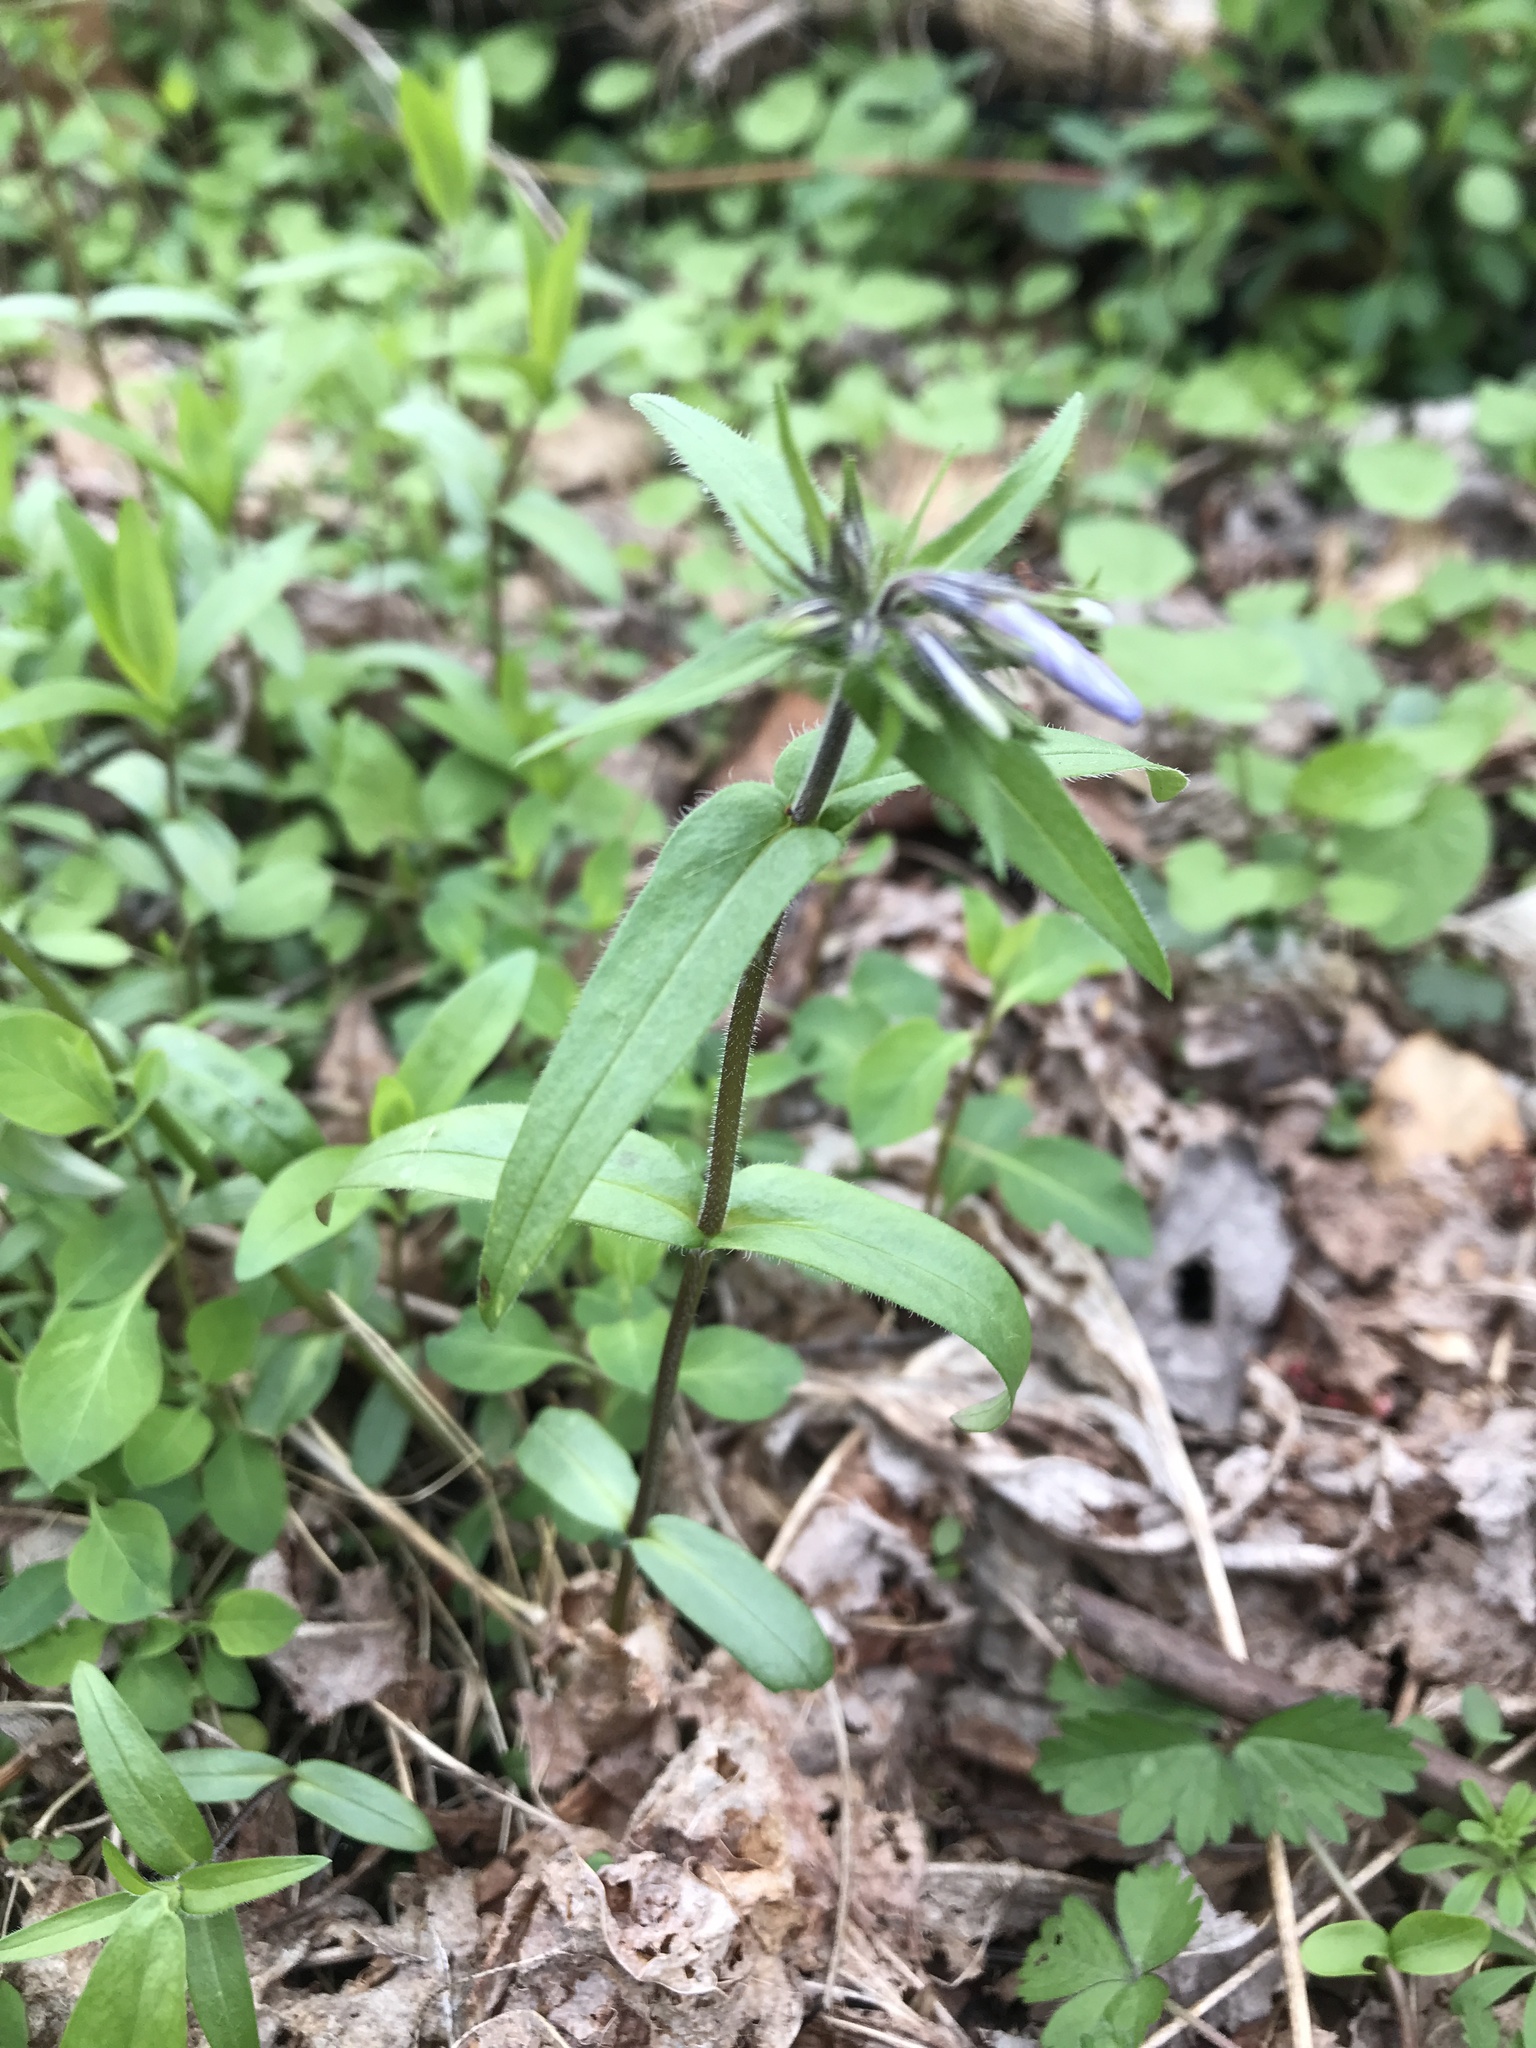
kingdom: Plantae
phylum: Tracheophyta
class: Magnoliopsida
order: Ericales
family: Polemoniaceae
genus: Phlox
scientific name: Phlox divaricata
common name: Blue phlox
